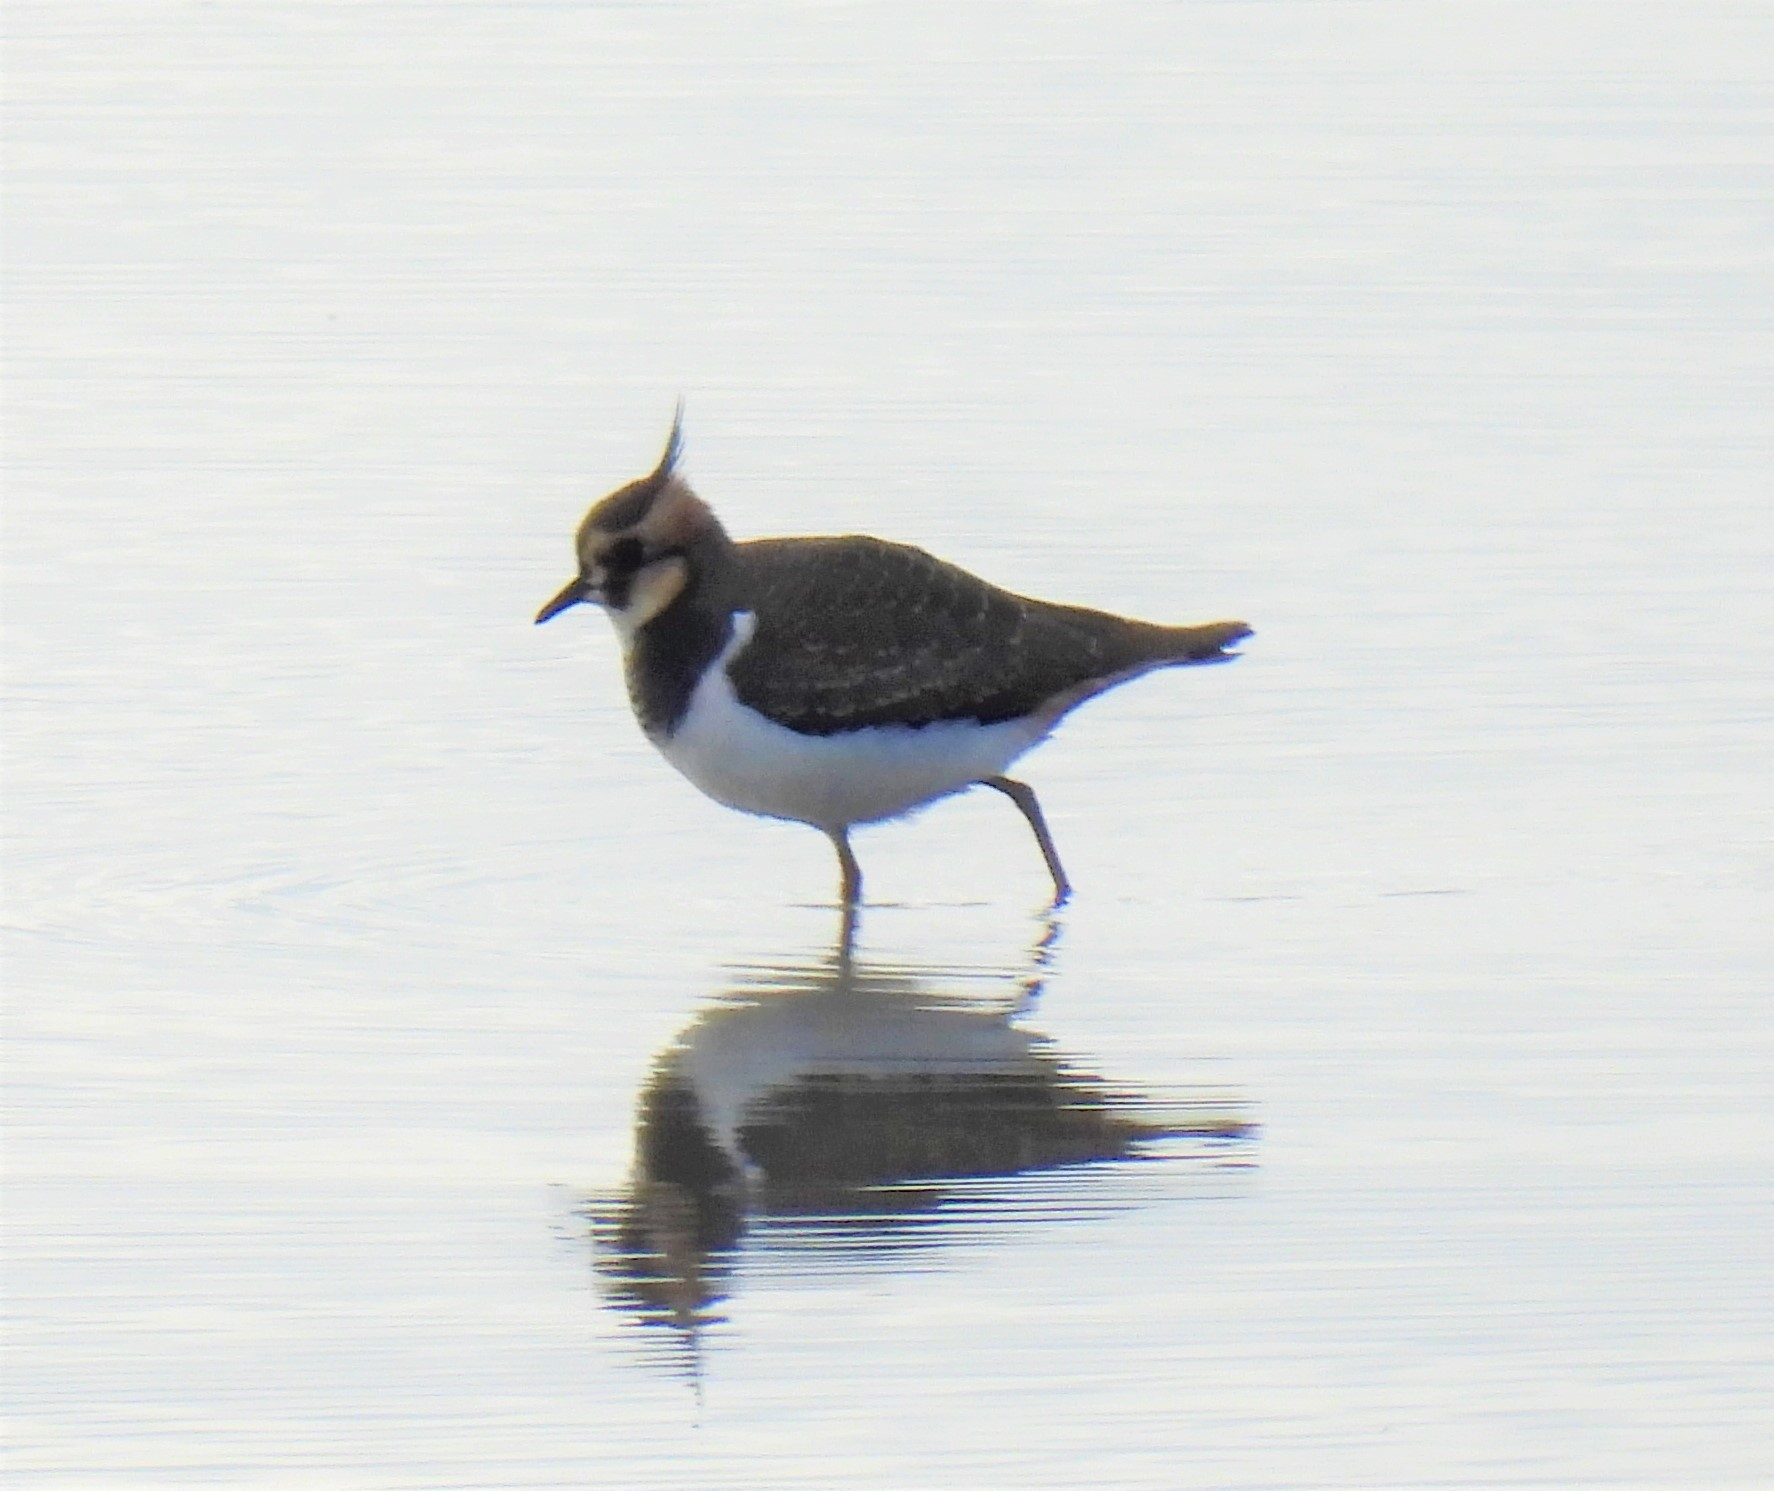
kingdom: Animalia
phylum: Chordata
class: Aves
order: Charadriiformes
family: Charadriidae
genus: Vanellus
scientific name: Vanellus vanellus
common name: Northern lapwing
